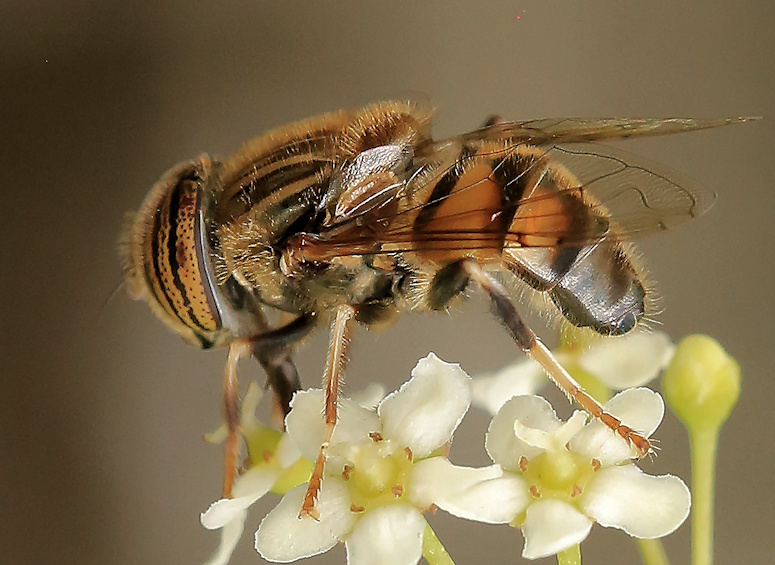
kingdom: Animalia
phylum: Arthropoda
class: Insecta
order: Diptera
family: Syrphidae
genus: Eristalinus
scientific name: Eristalinus quinquelineatus
